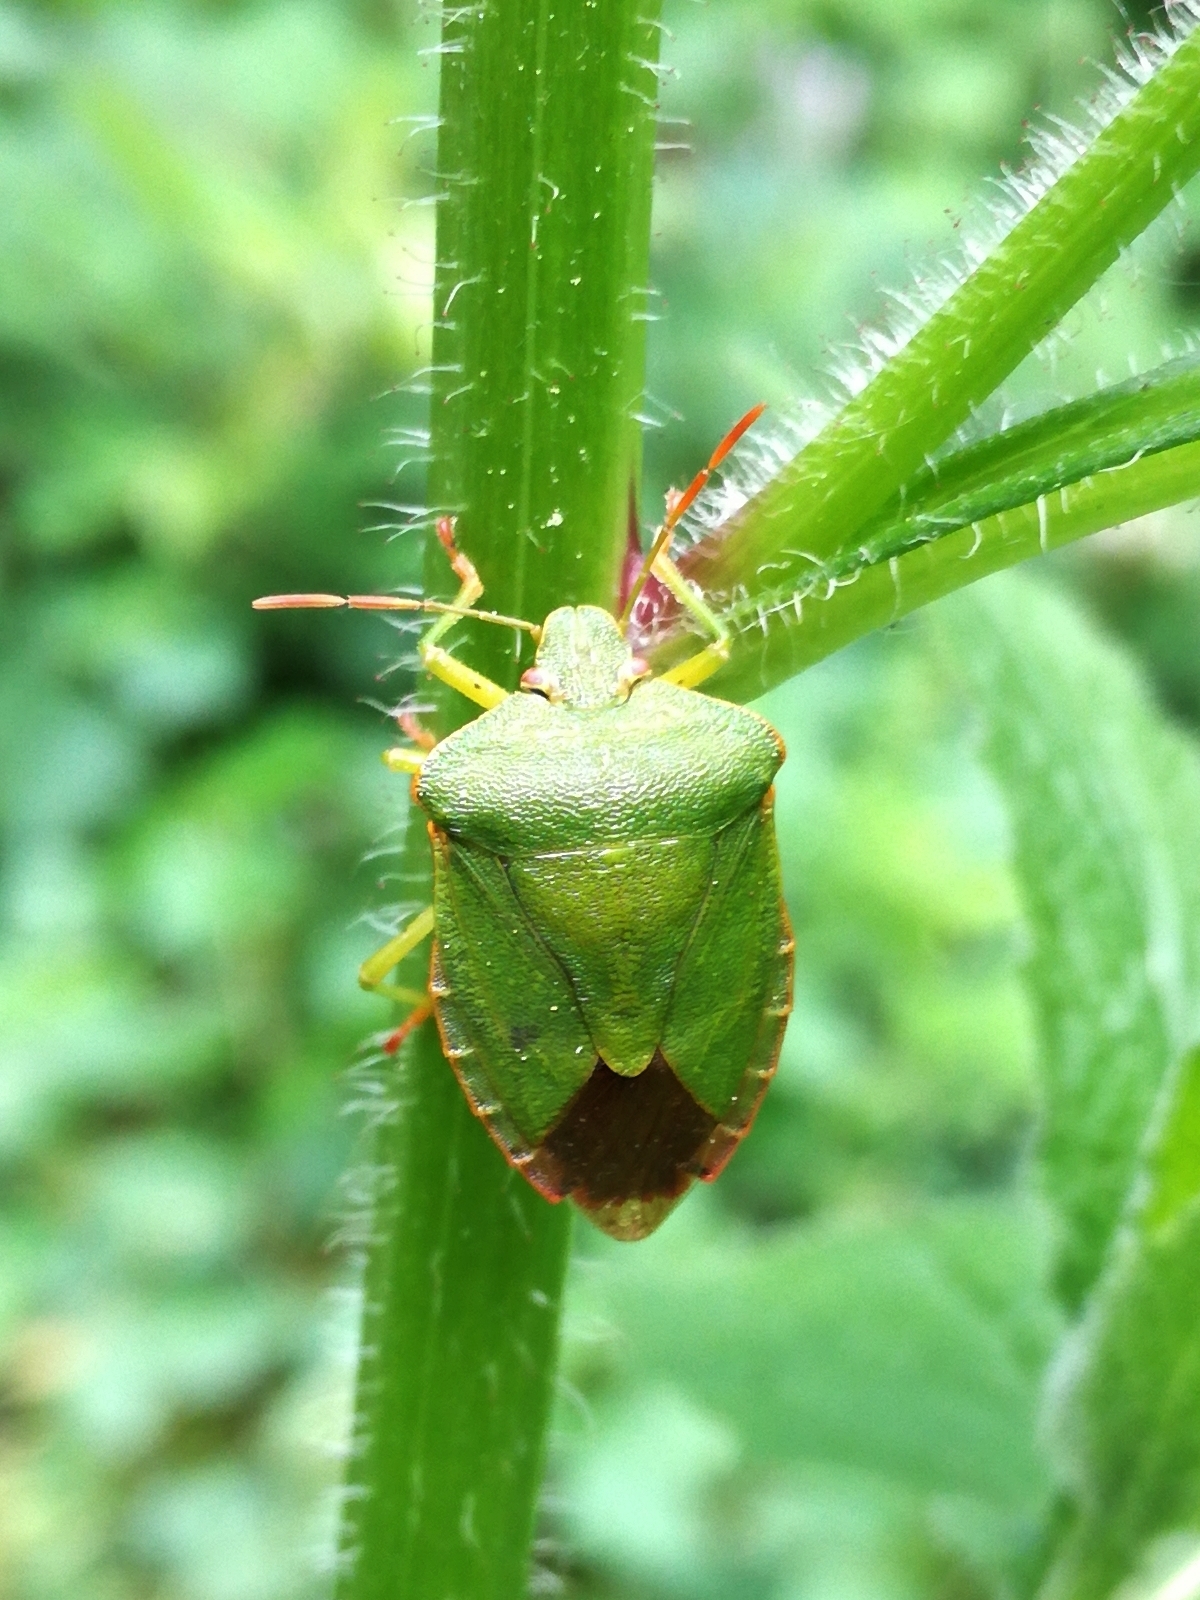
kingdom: Animalia
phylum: Arthropoda
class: Insecta
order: Hemiptera
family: Pentatomidae
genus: Palomena
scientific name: Palomena prasina
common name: Green shieldbug
